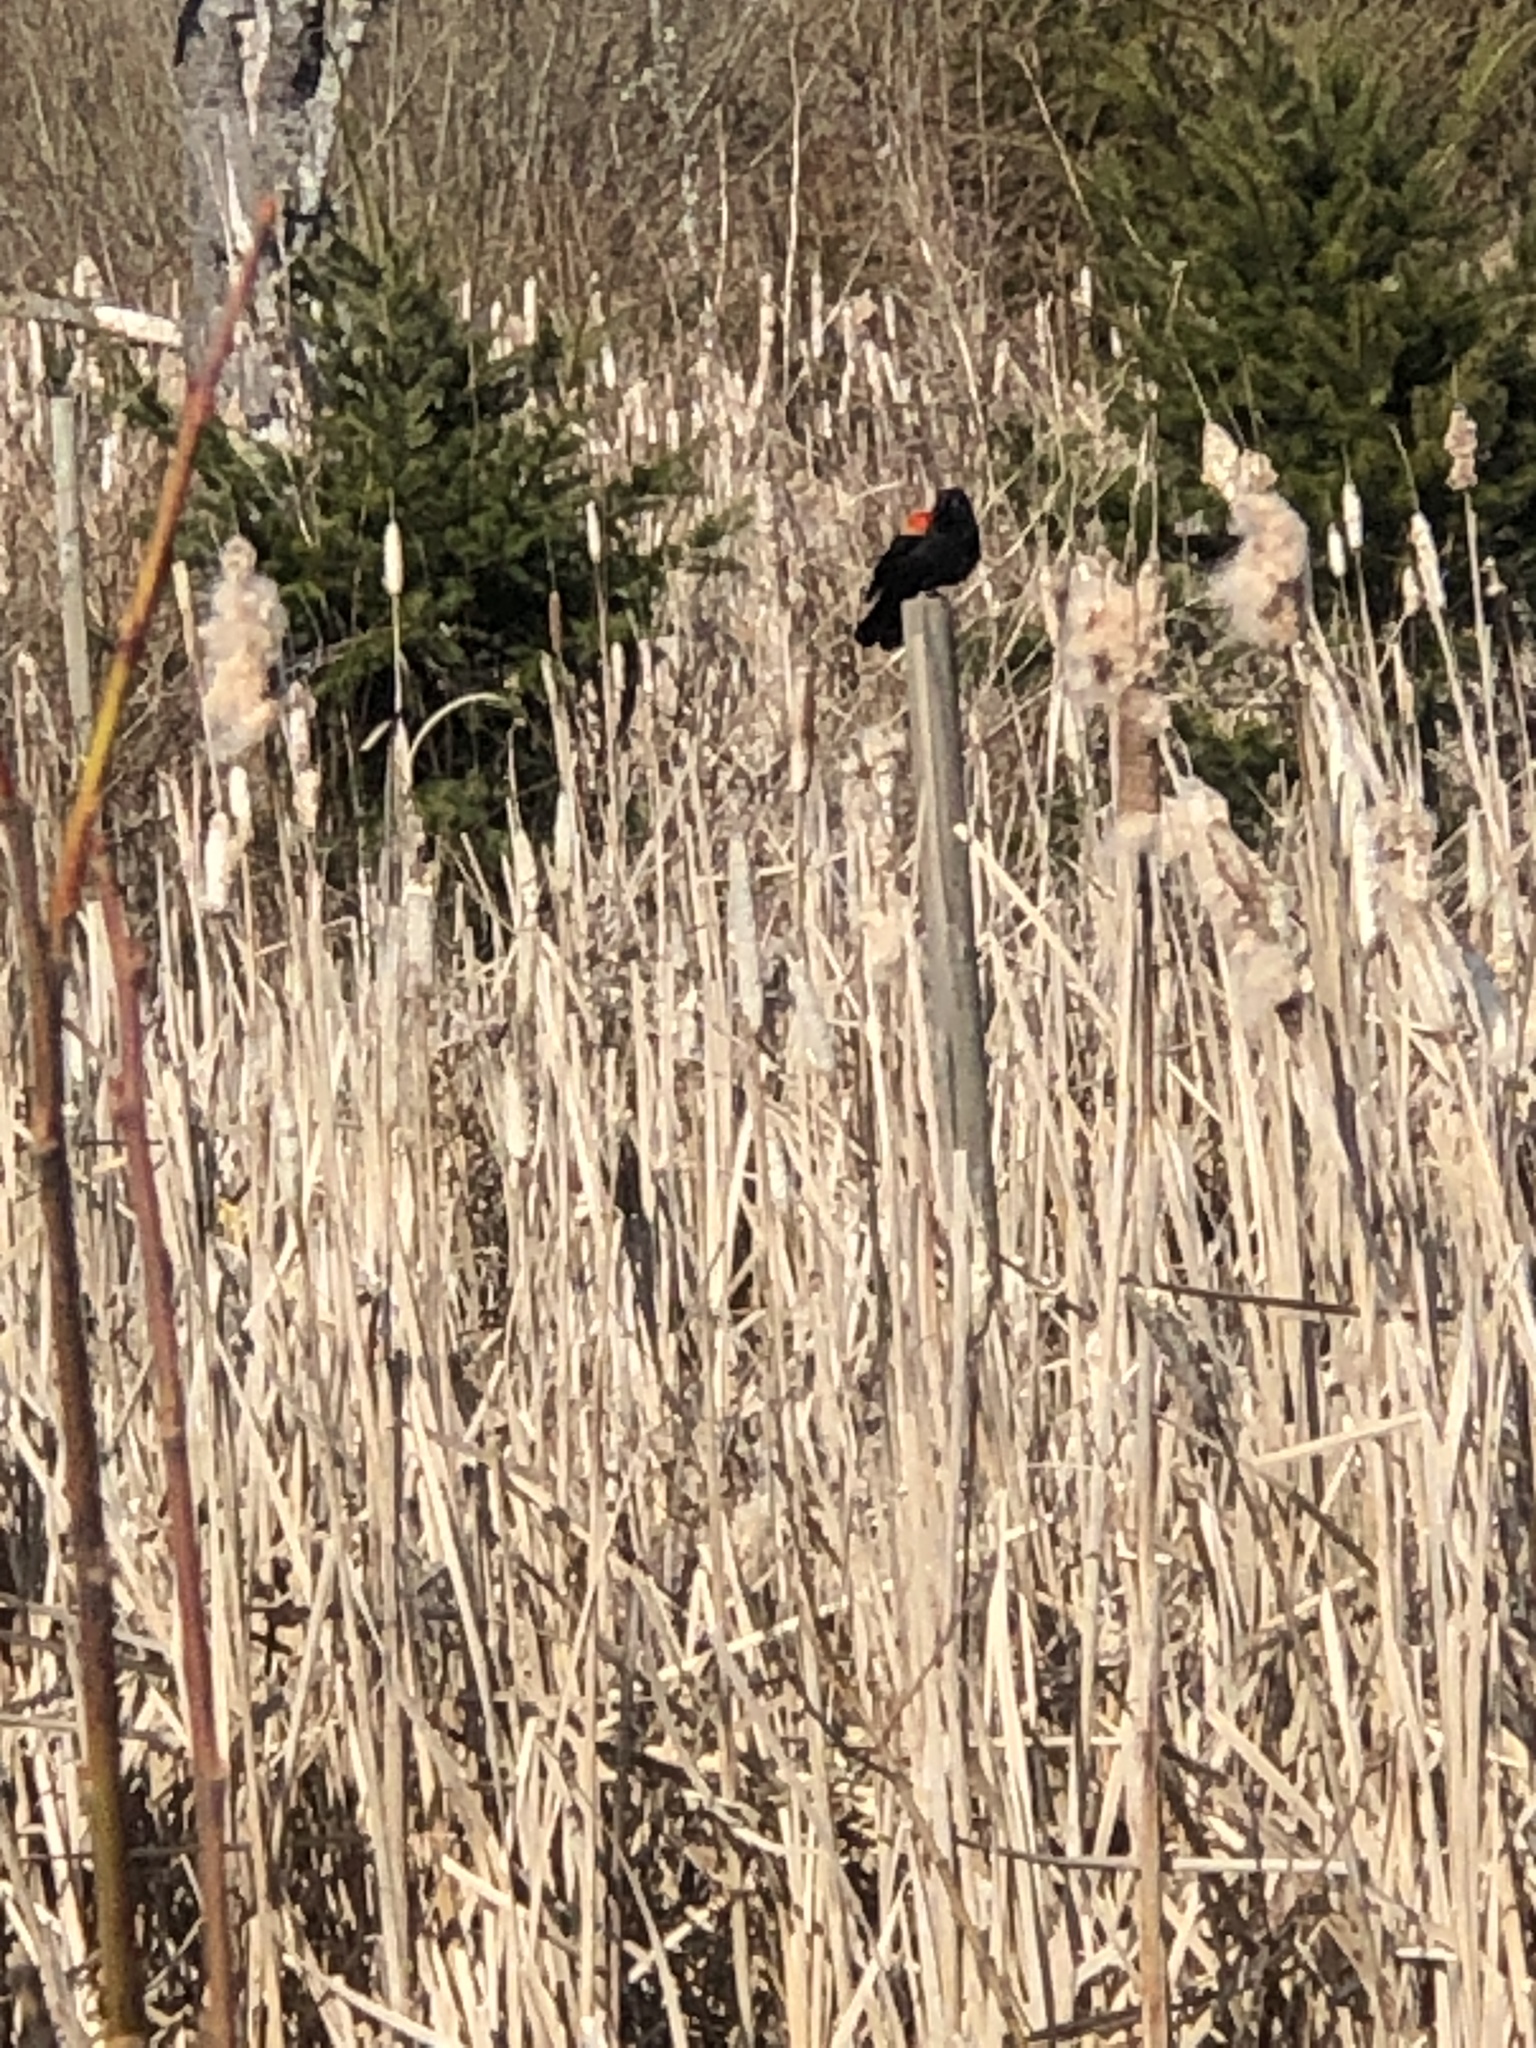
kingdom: Animalia
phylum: Chordata
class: Aves
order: Passeriformes
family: Icteridae
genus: Agelaius
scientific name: Agelaius phoeniceus
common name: Red-winged blackbird
